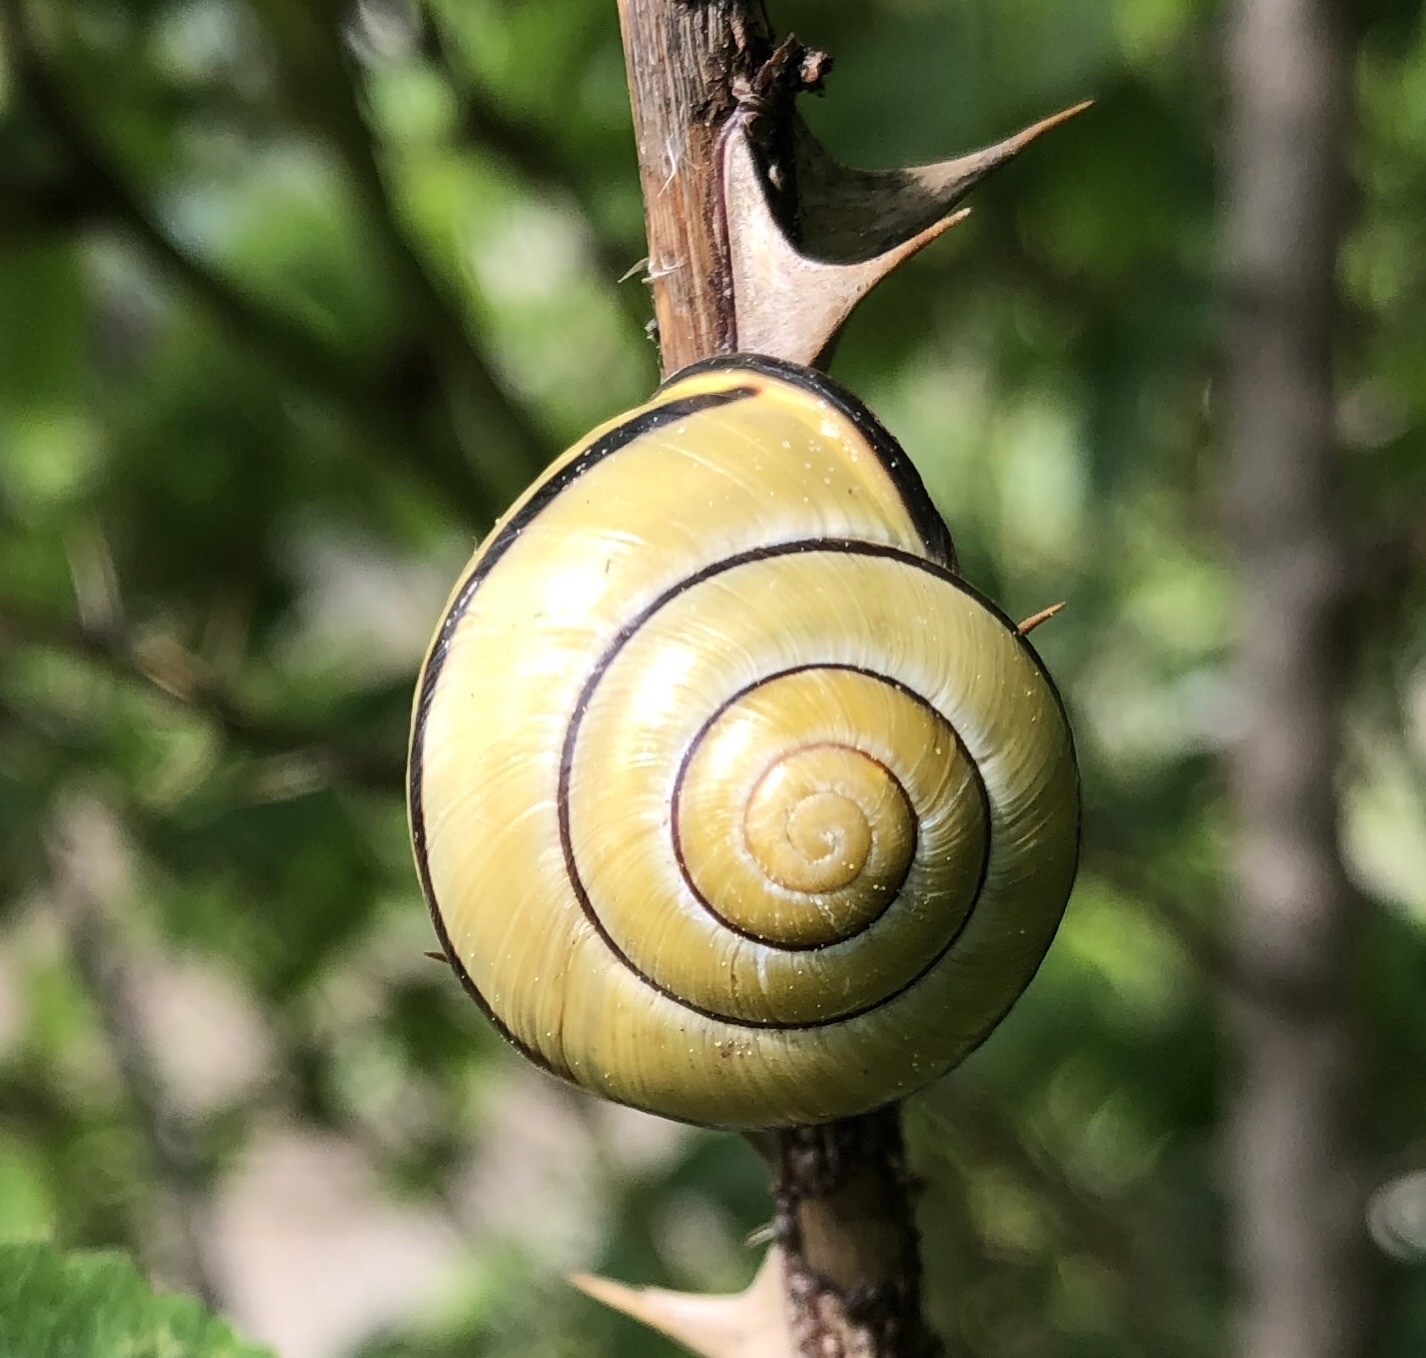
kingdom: Animalia
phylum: Mollusca
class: Gastropoda
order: Stylommatophora
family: Helicidae
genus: Cepaea
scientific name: Cepaea nemoralis
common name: Grovesnail
